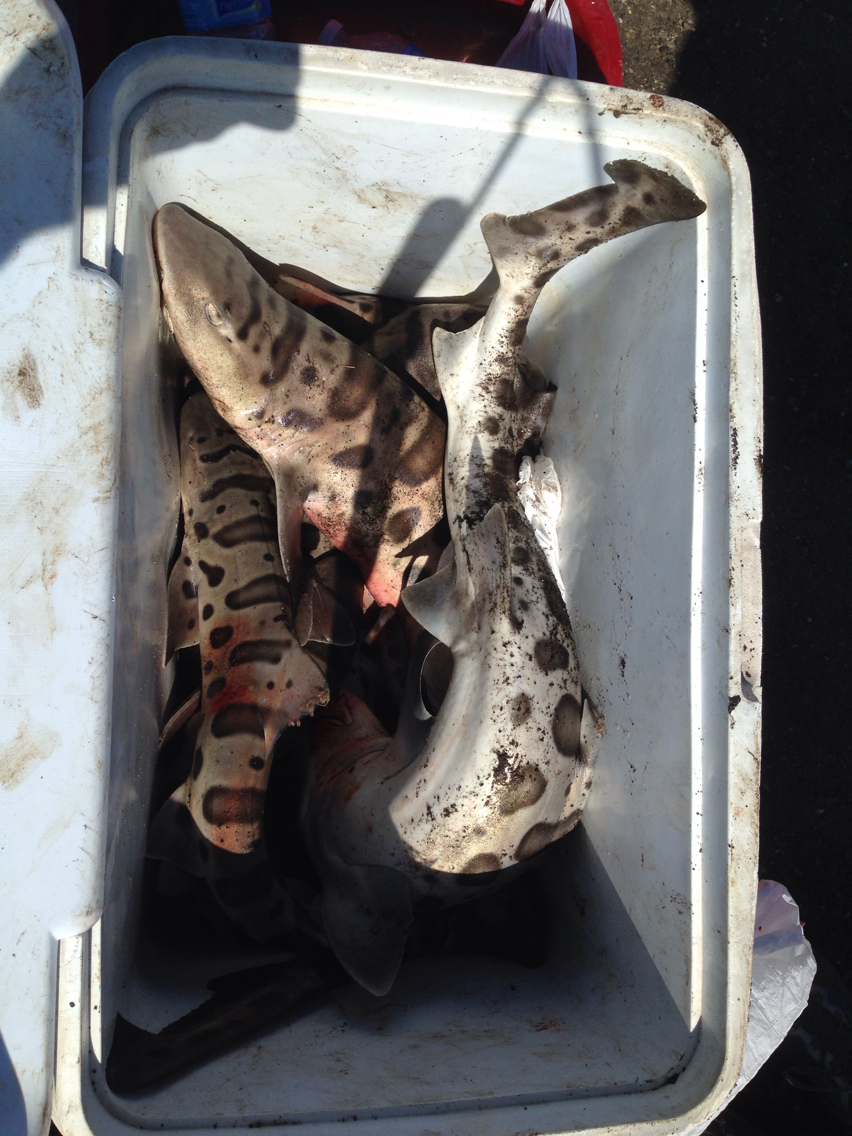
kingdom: Animalia
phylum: Chordata
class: Elasmobranchii
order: Carcharhiniformes
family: Triakidae
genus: Triakis
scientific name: Triakis semifasciata
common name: Leopard shark
